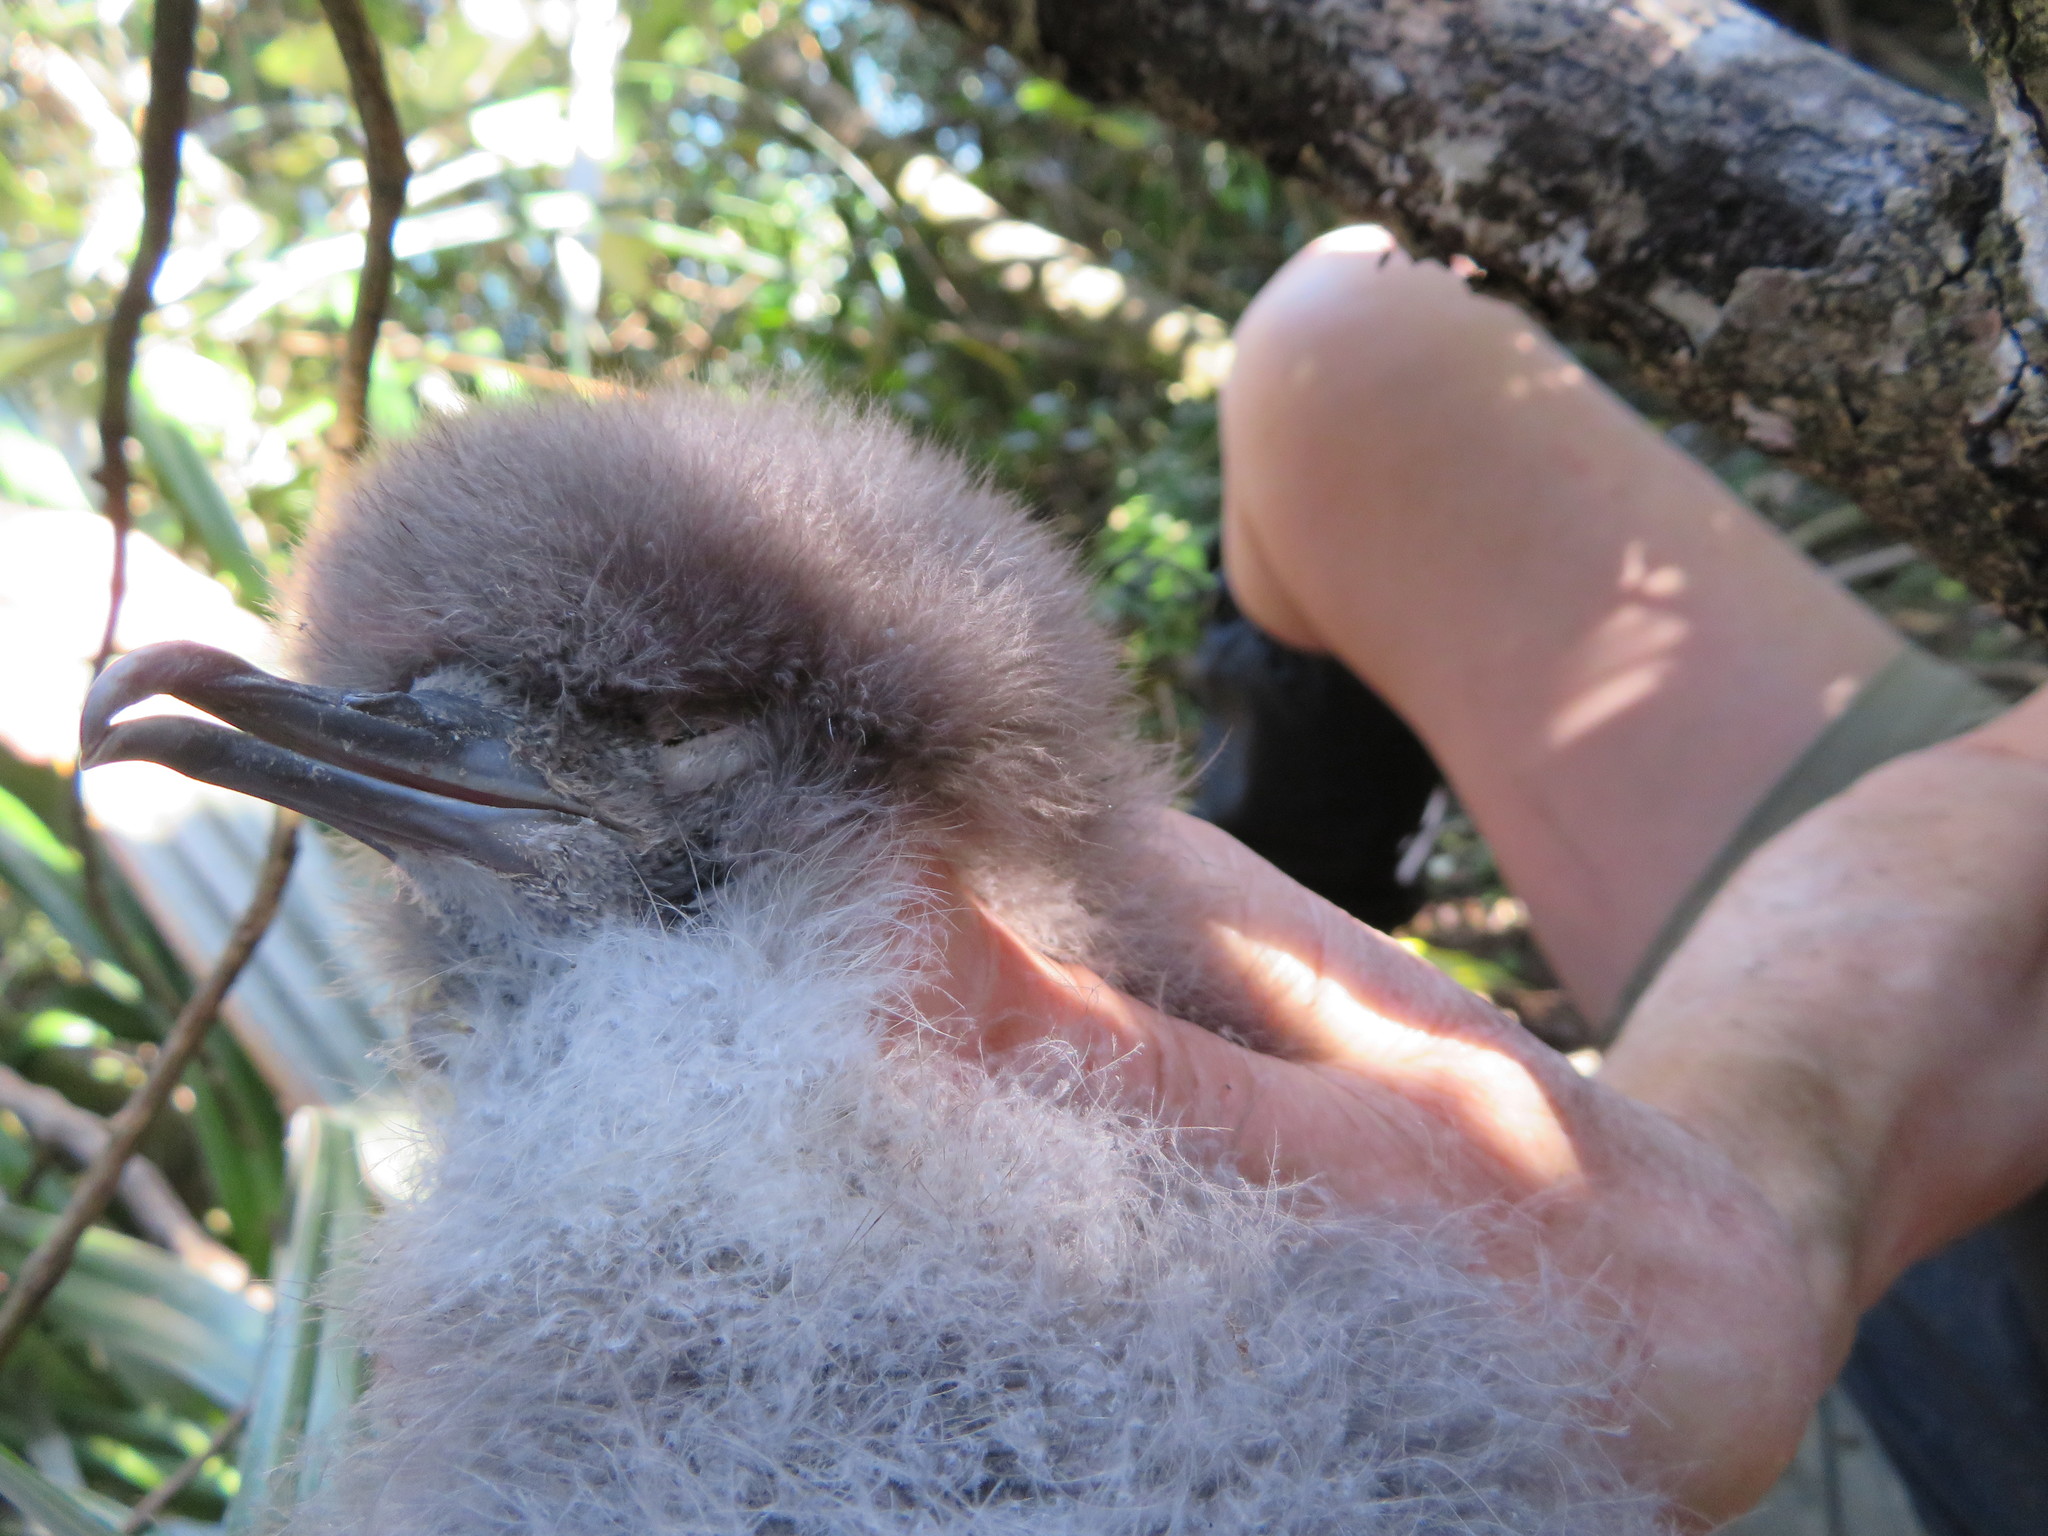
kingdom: Animalia
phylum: Chordata
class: Aves
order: Procellariiformes
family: Procellariidae
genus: Puffinus
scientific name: Puffinus assimilis
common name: Little shearwater
